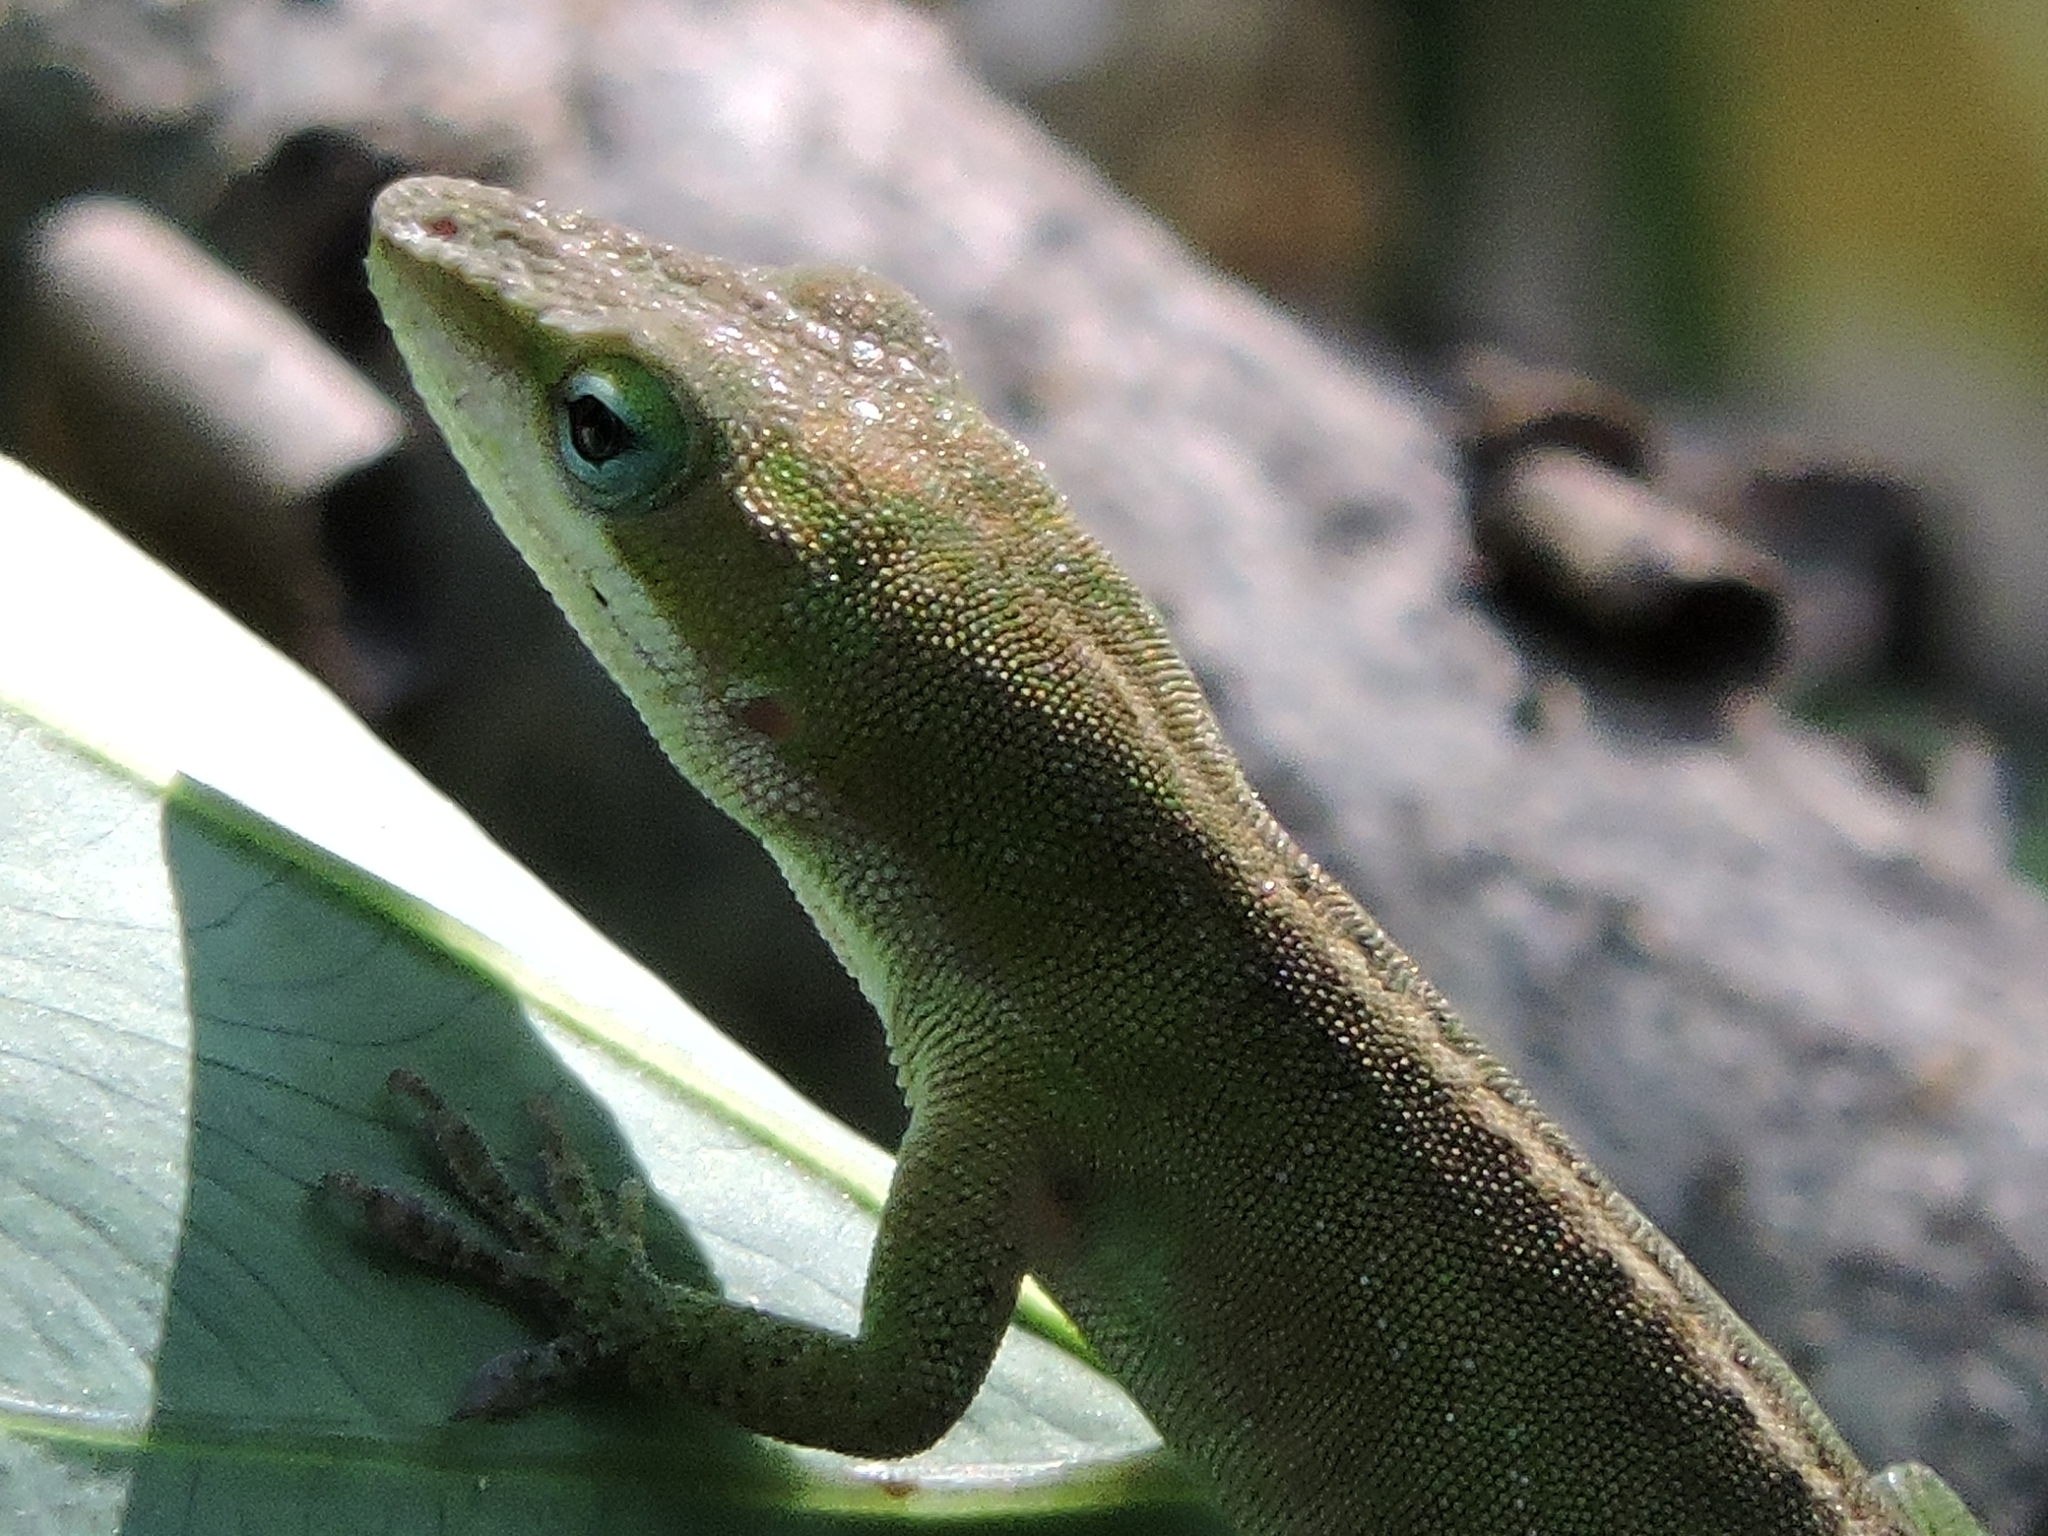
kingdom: Animalia
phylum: Chordata
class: Squamata
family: Dactyloidae
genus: Anolis
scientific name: Anolis carolinensis
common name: Green anole
